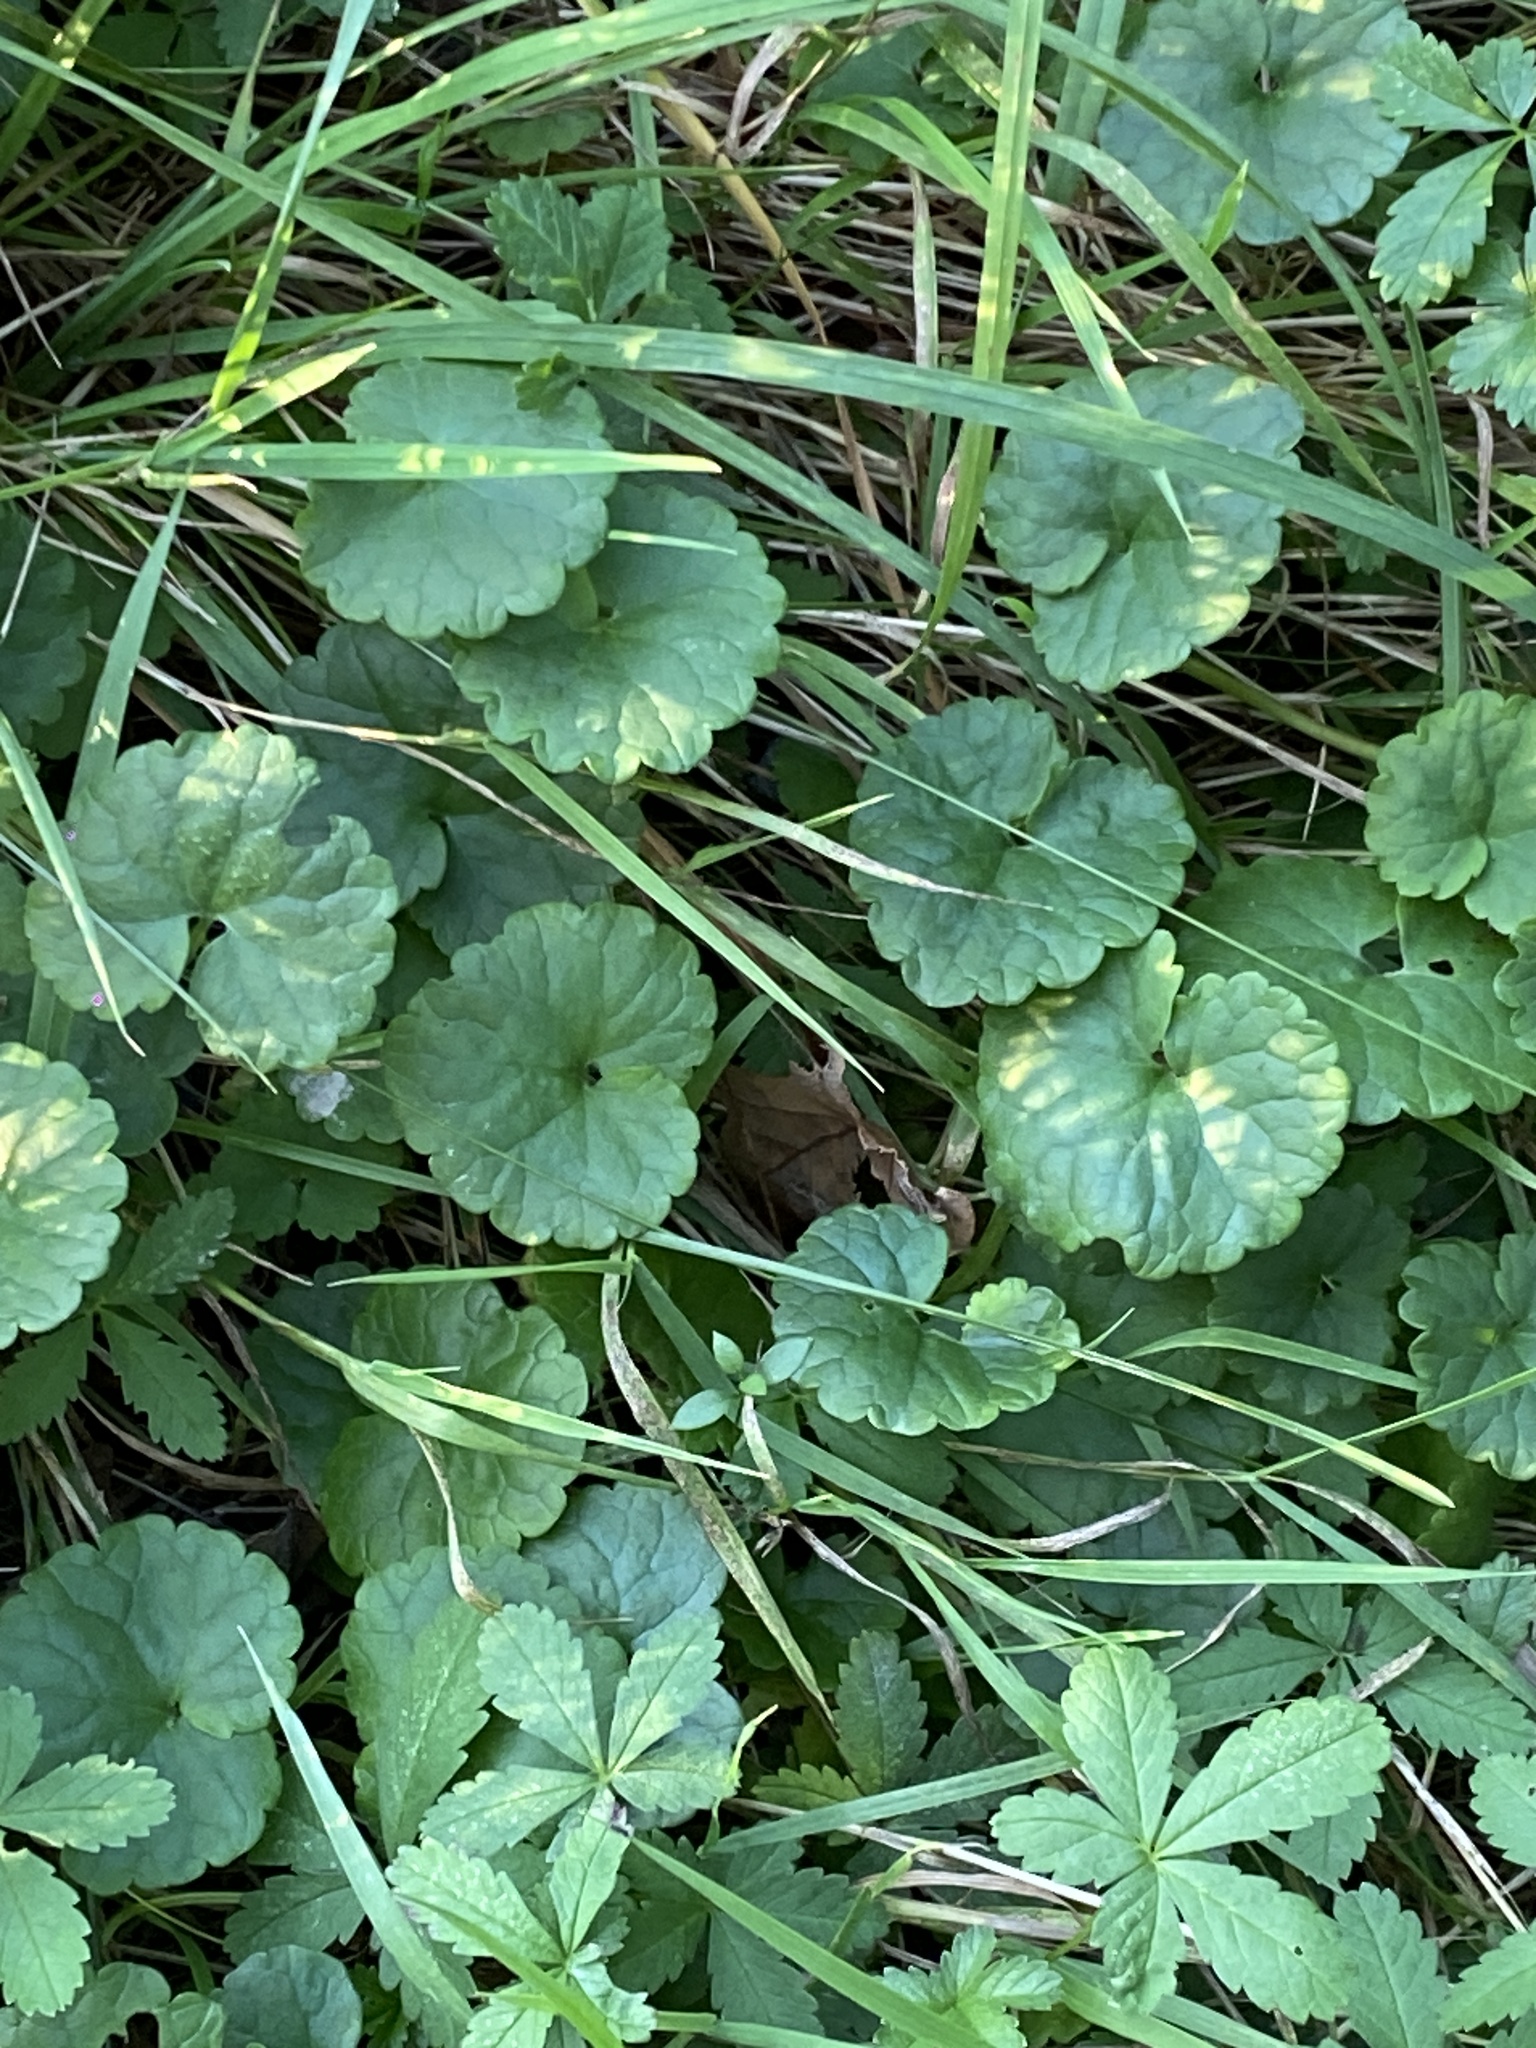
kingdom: Plantae
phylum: Tracheophyta
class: Magnoliopsida
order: Lamiales
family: Lamiaceae
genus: Glechoma
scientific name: Glechoma hederacea
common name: Ground ivy
